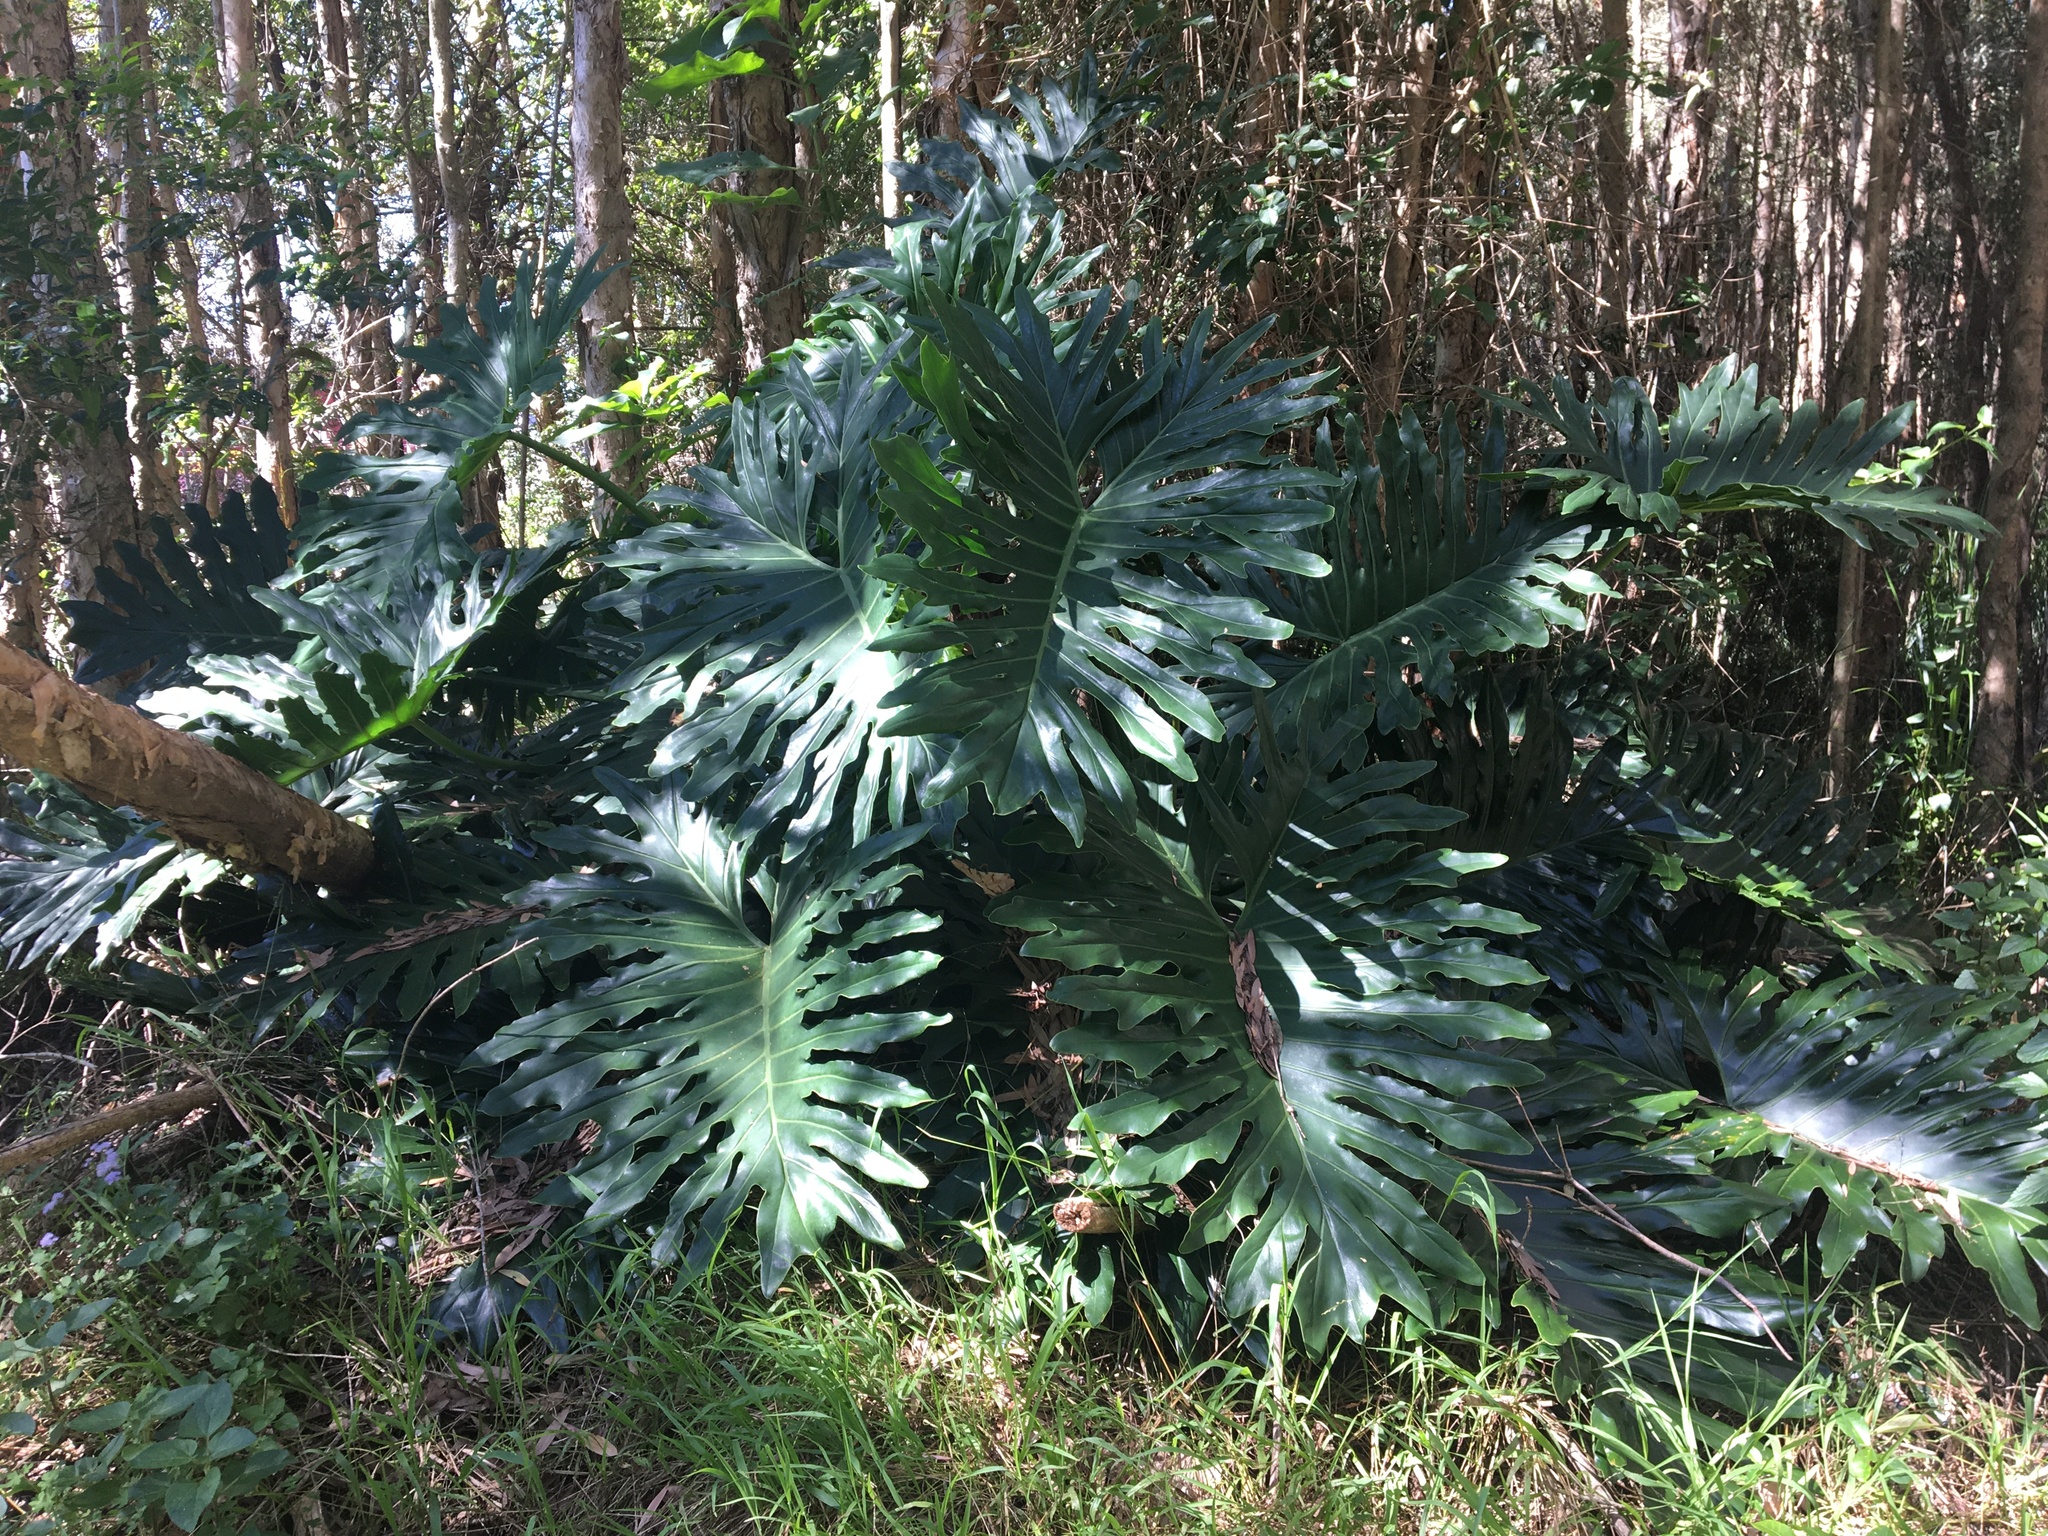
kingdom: Plantae
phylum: Tracheophyta
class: Liliopsida
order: Alismatales
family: Araceae
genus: Thaumatophyllum
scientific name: Thaumatophyllum bipinnatifidum
